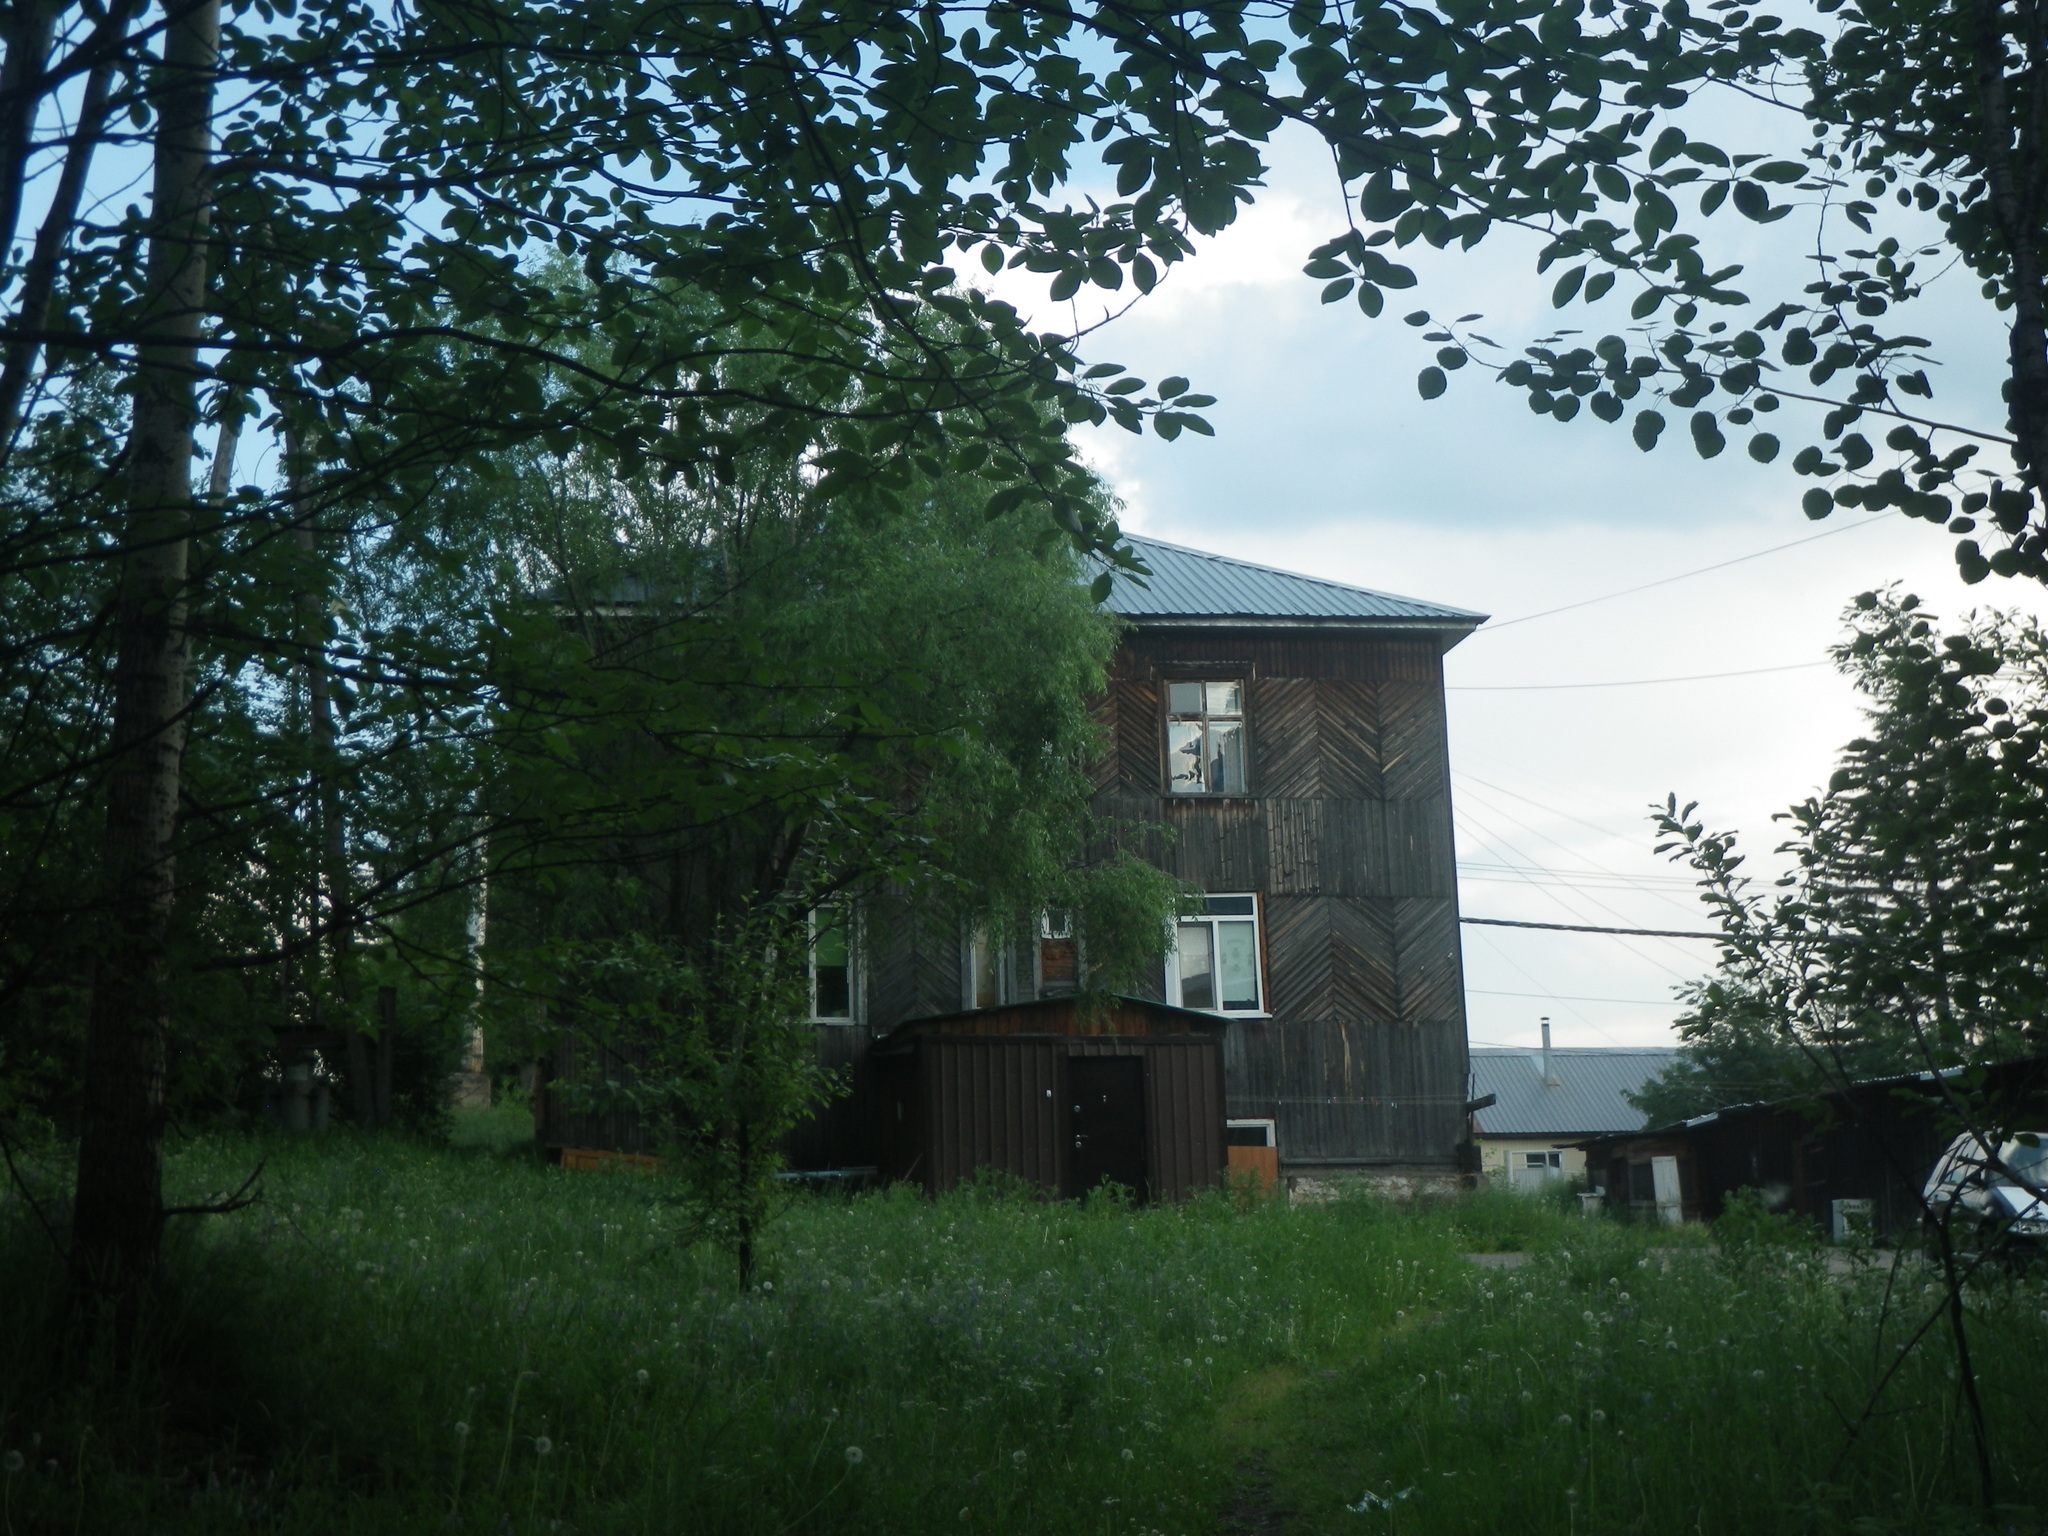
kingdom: Plantae
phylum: Tracheophyta
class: Magnoliopsida
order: Malpighiales
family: Salicaceae
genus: Populus
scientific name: Populus suaveolens
